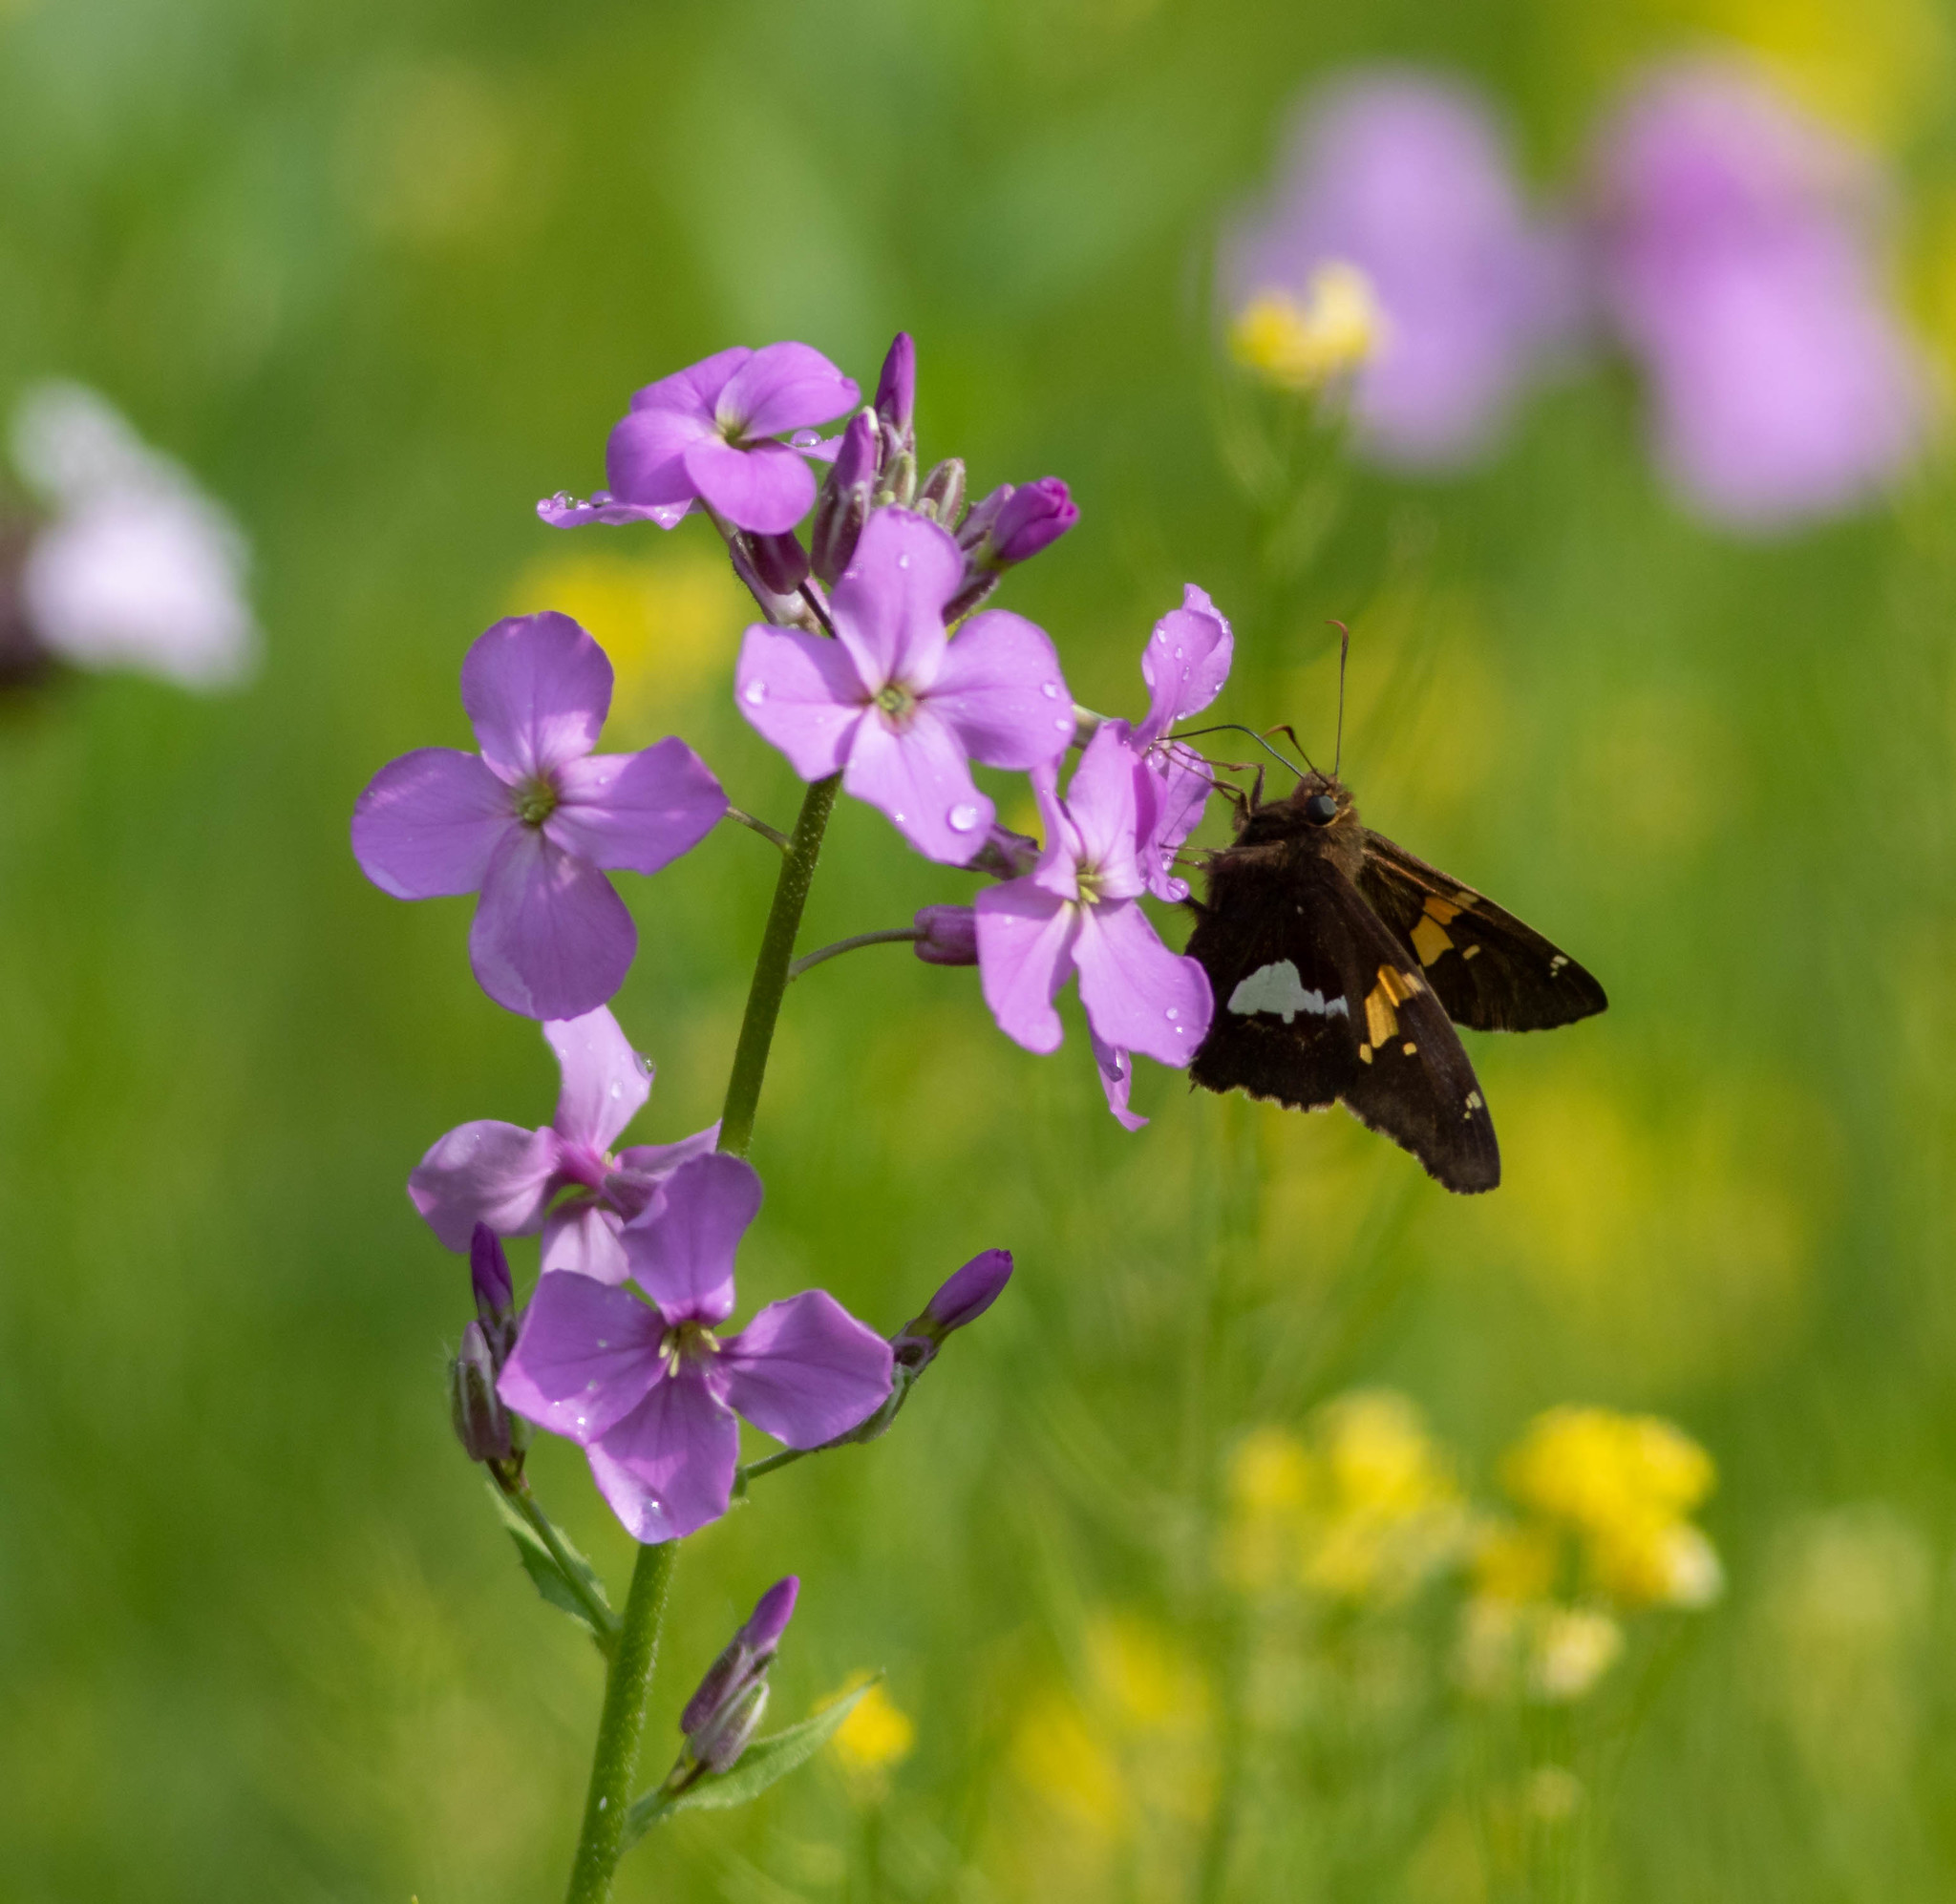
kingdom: Plantae
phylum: Tracheophyta
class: Magnoliopsida
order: Brassicales
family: Brassicaceae
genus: Hesperis
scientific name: Hesperis matronalis
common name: Dame's-violet
